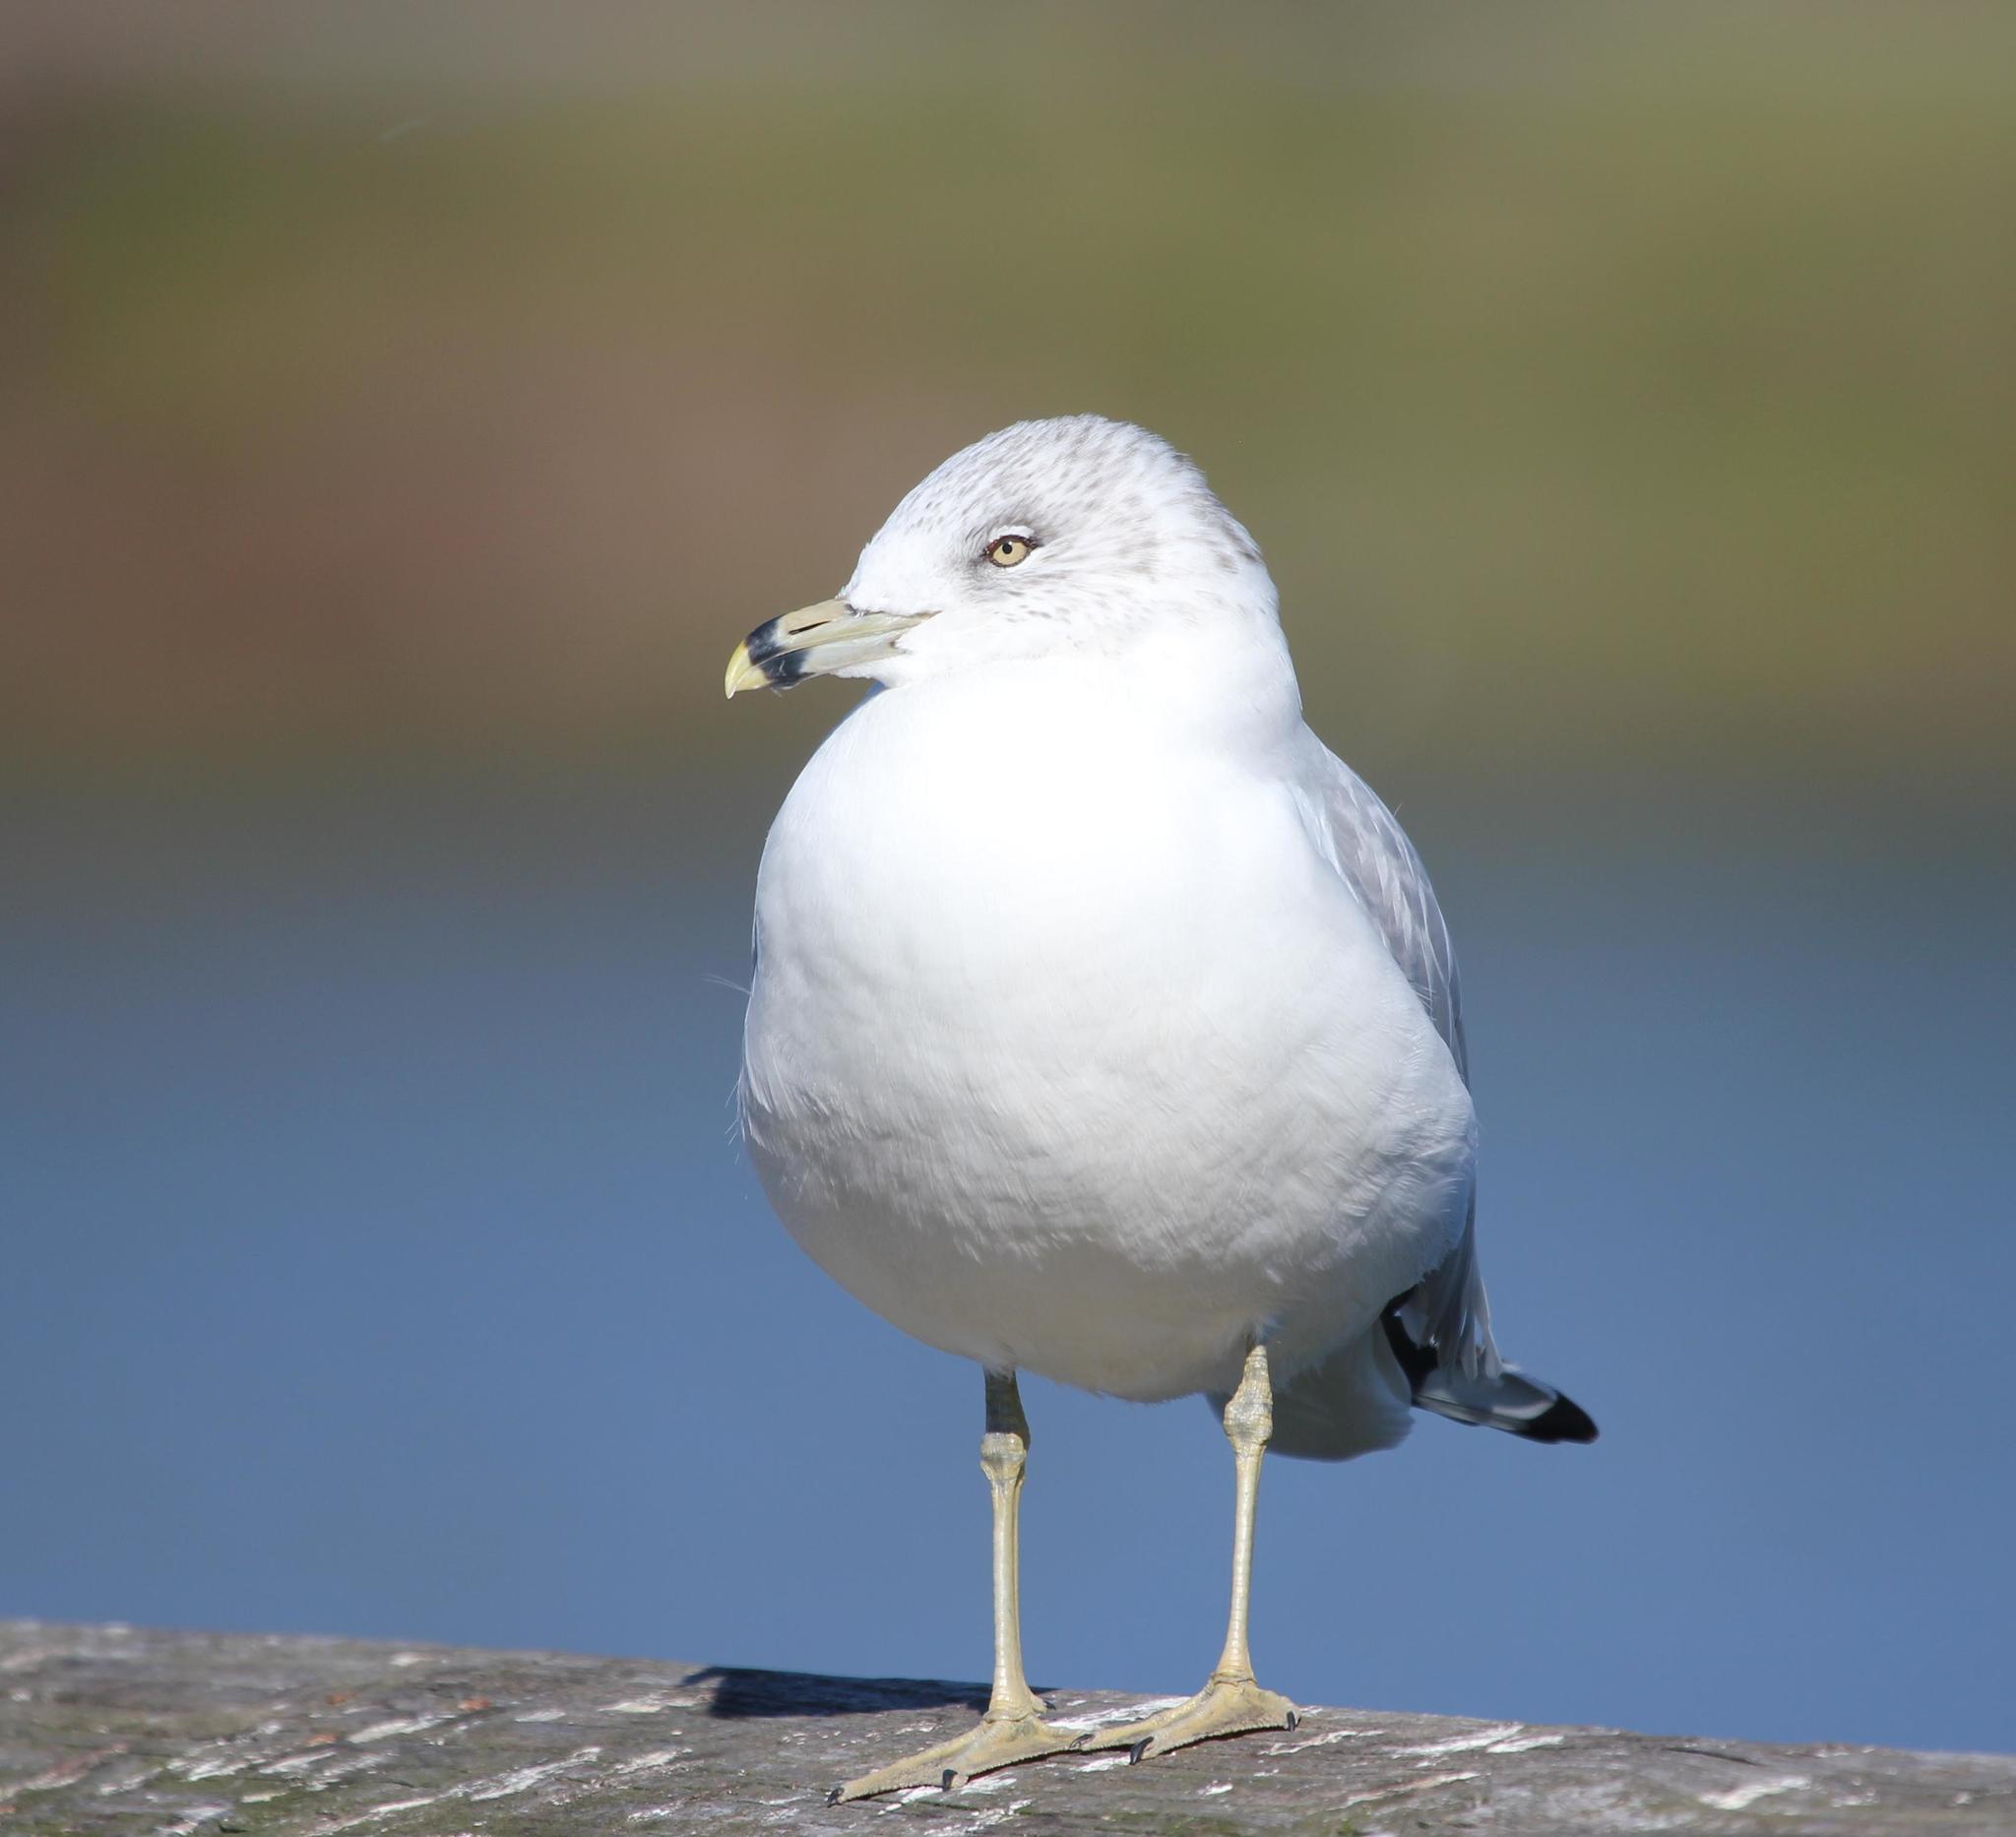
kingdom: Animalia
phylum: Chordata
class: Aves
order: Charadriiformes
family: Laridae
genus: Larus
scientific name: Larus delawarensis
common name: Ring-billed gull
